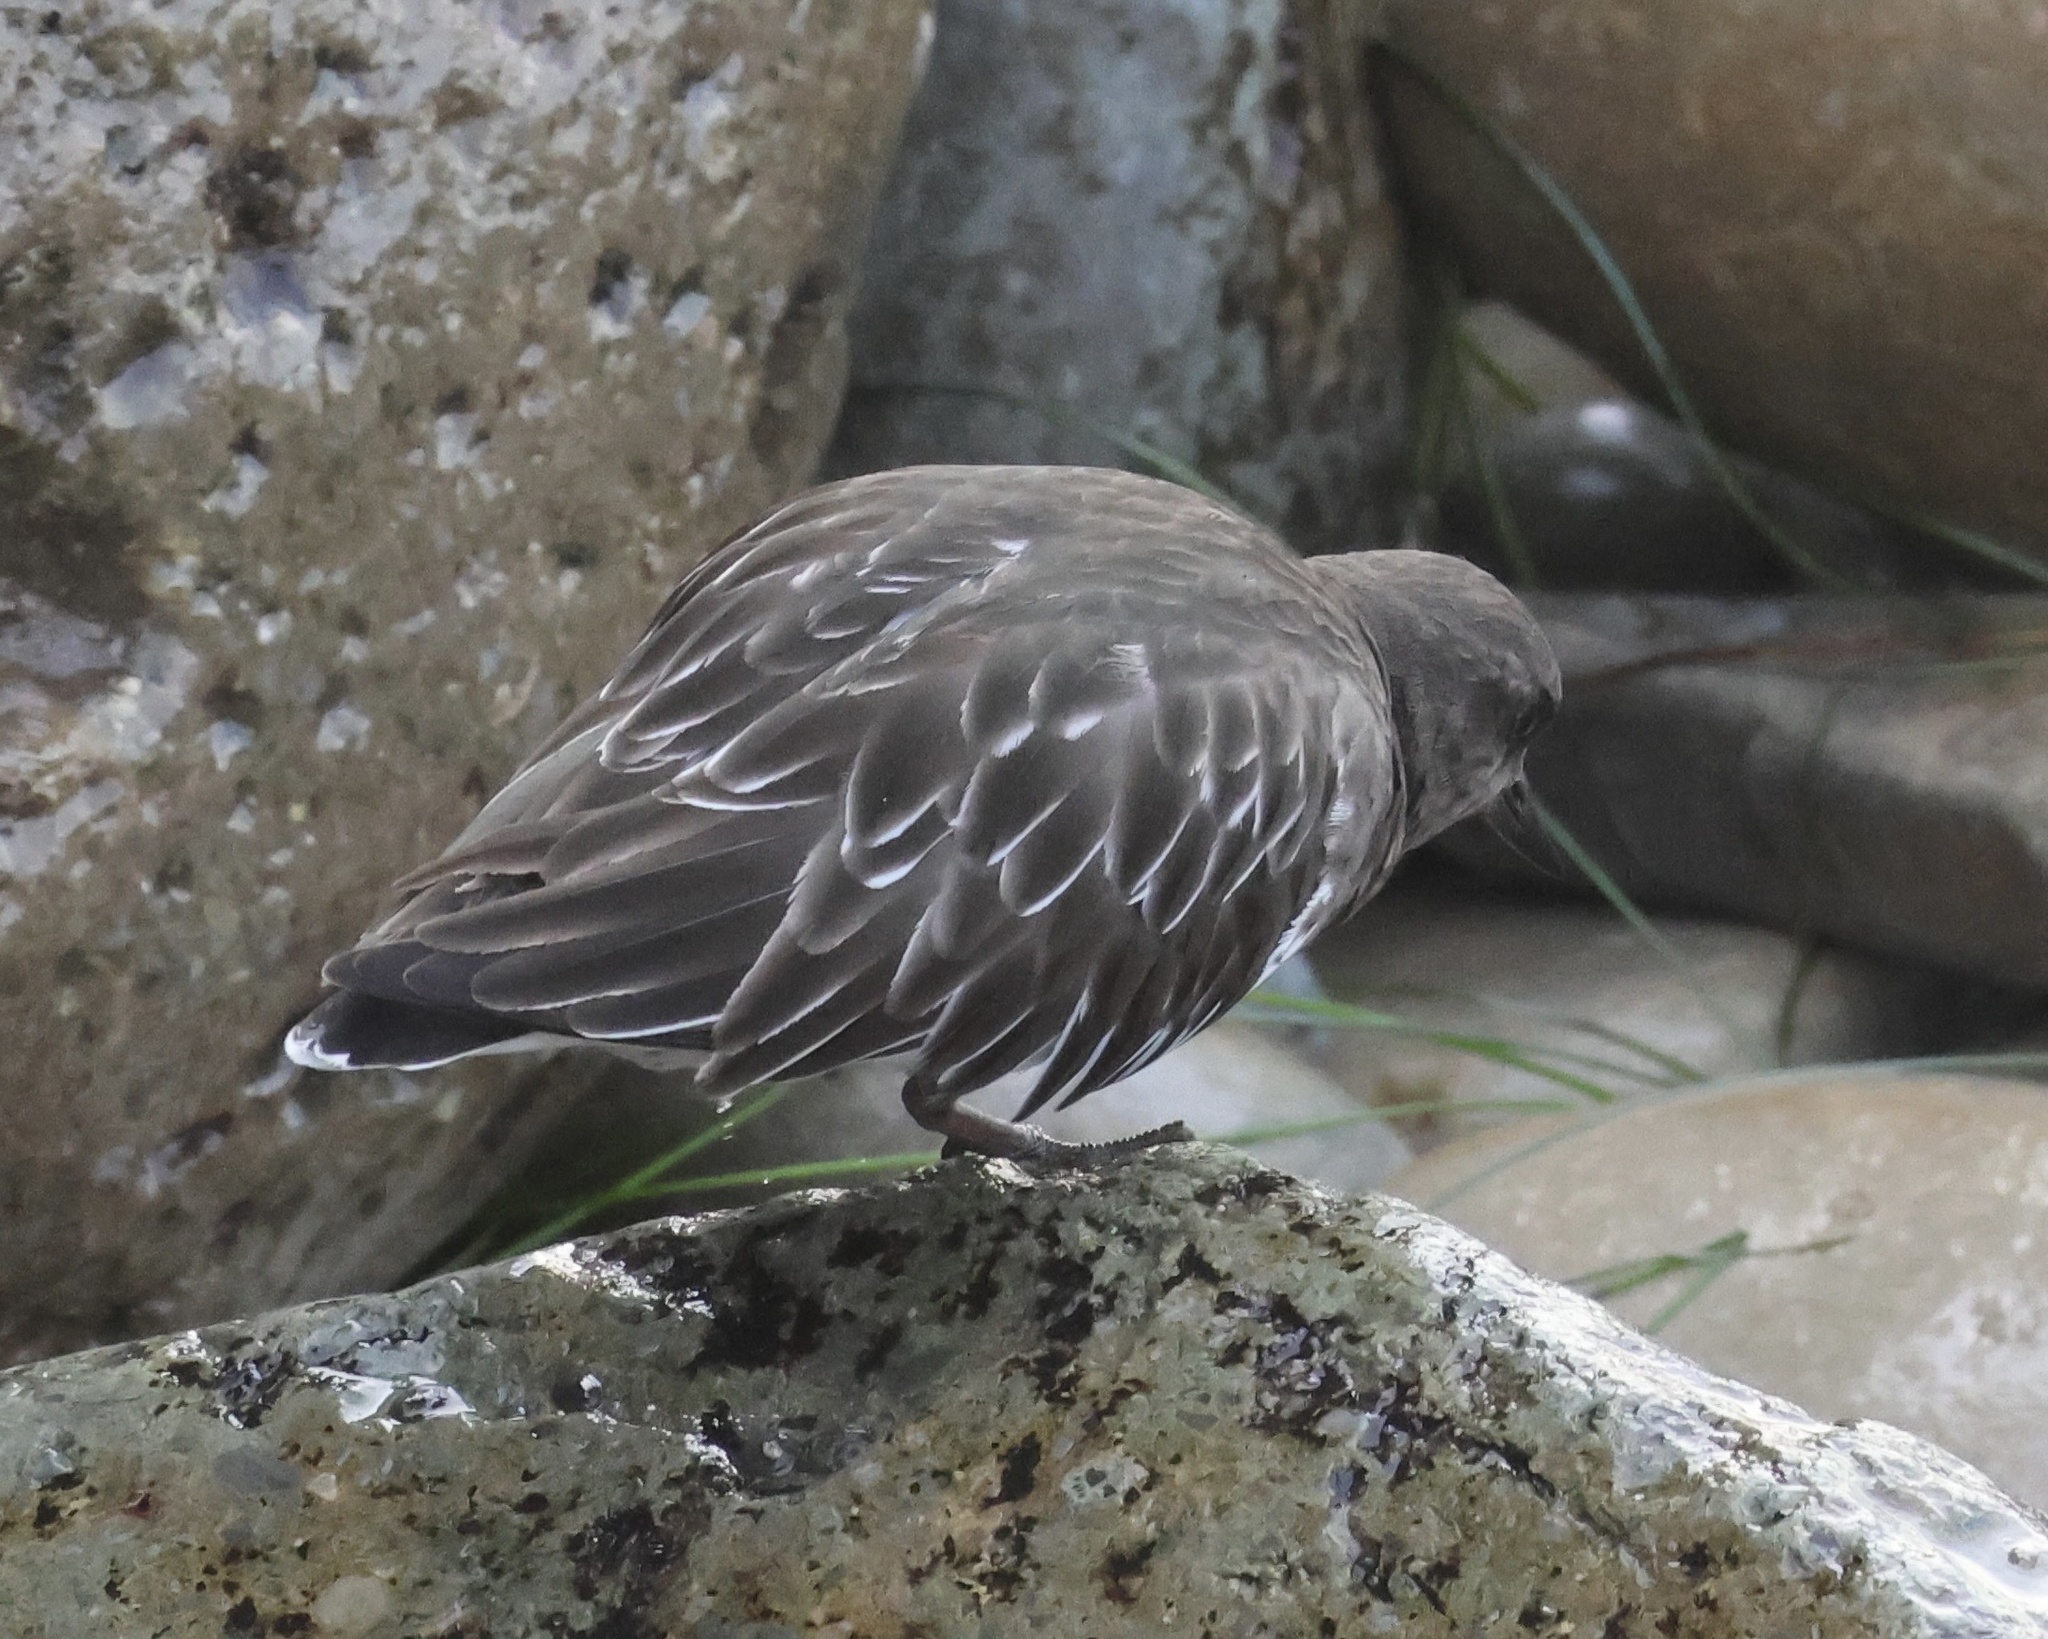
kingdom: Animalia
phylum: Chordata
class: Aves
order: Charadriiformes
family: Scolopacidae
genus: Arenaria
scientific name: Arenaria melanocephala
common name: Black turnstone
